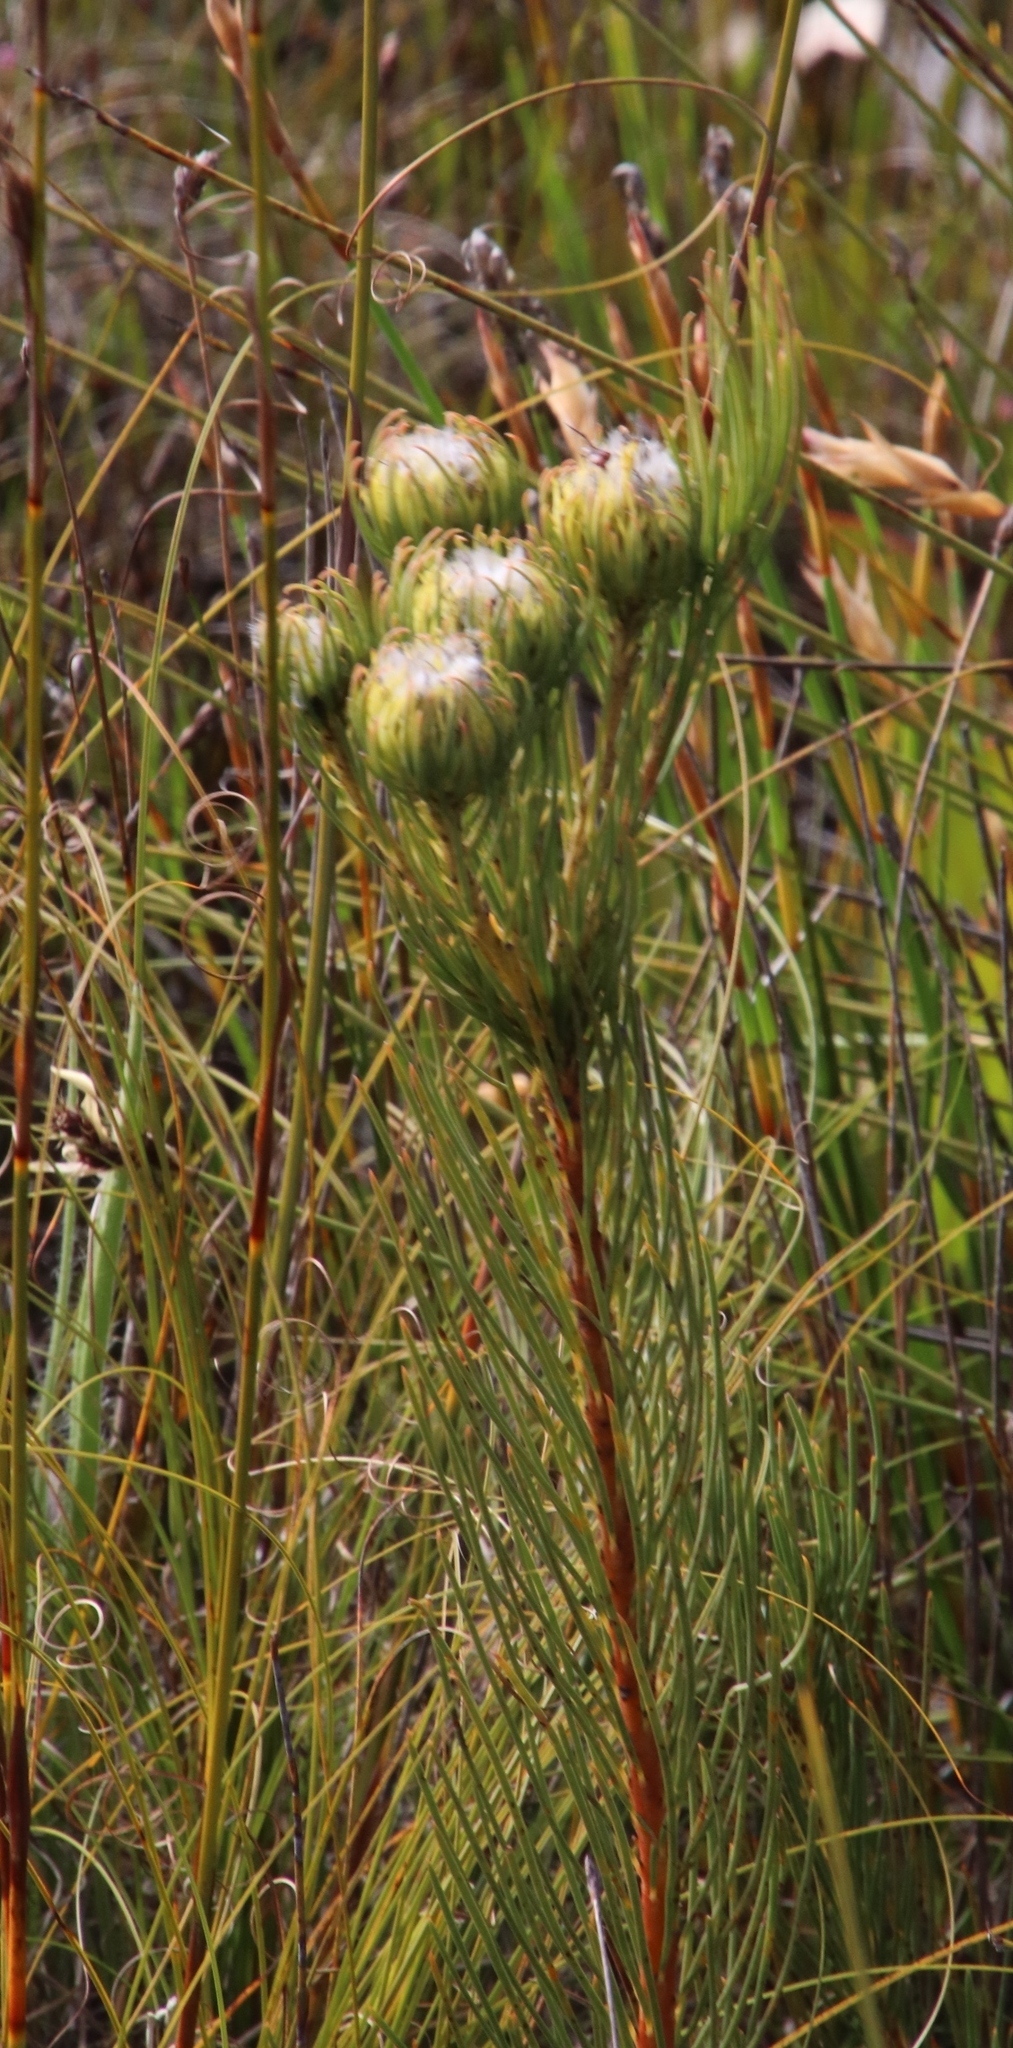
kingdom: Plantae
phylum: Tracheophyta
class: Magnoliopsida
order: Proteales
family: Proteaceae
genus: Aulax
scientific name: Aulax pallasia
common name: Needle-leaf featherbush
